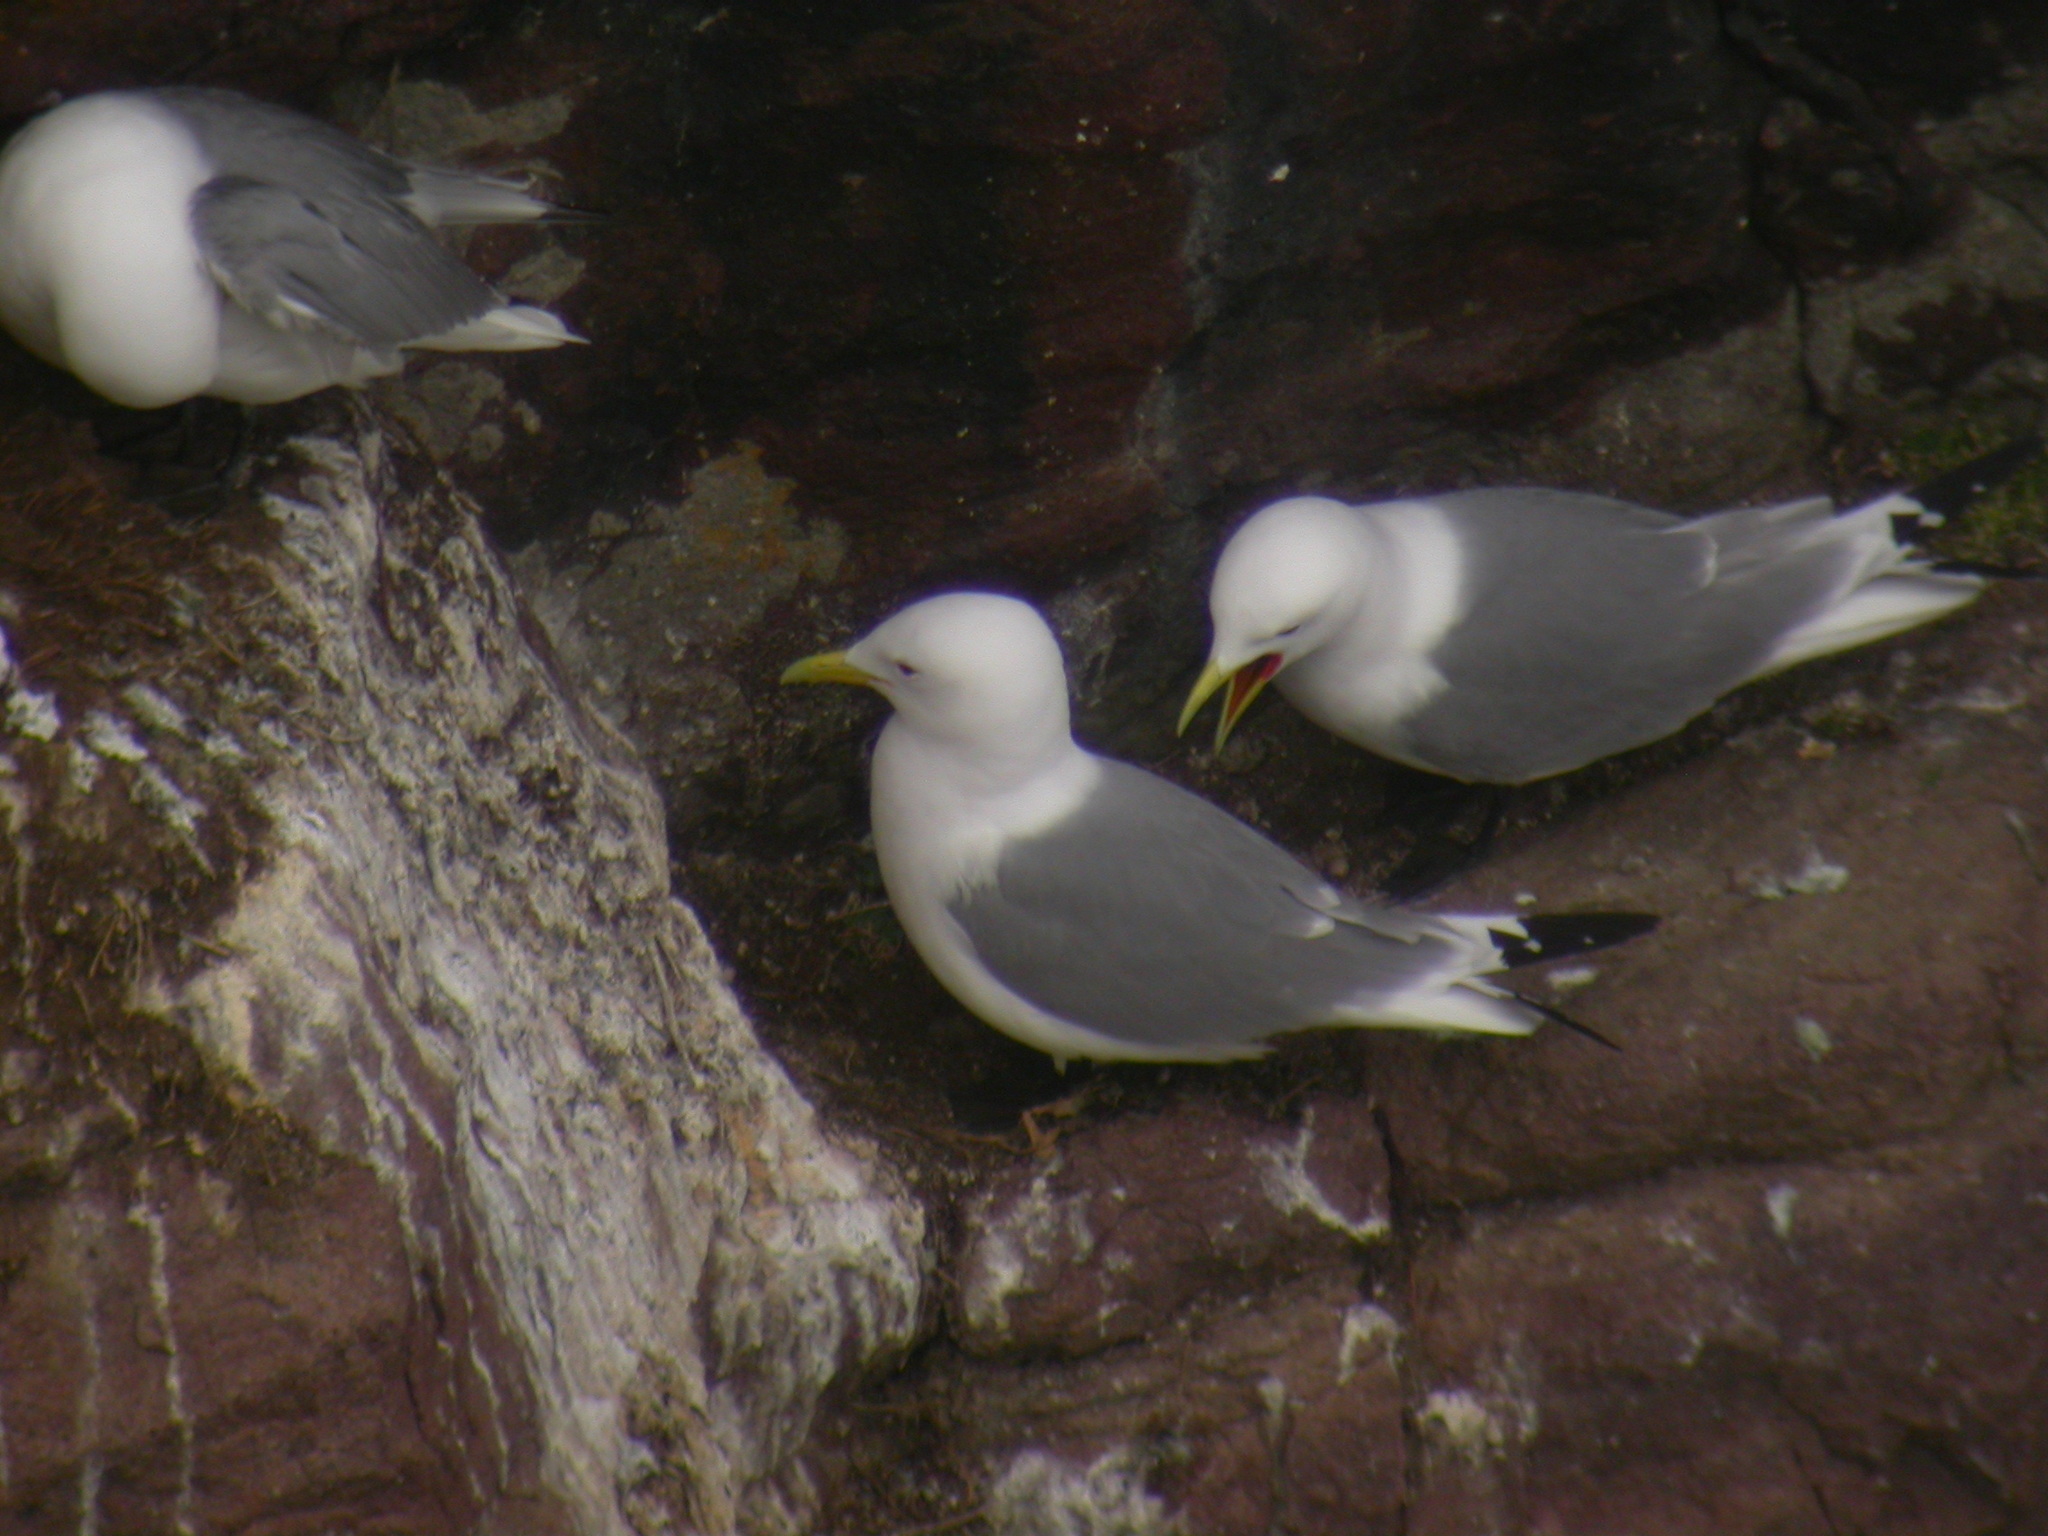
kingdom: Animalia
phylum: Chordata
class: Aves
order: Charadriiformes
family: Laridae
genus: Rissa
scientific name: Rissa tridactyla
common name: Black-legged kittiwake
